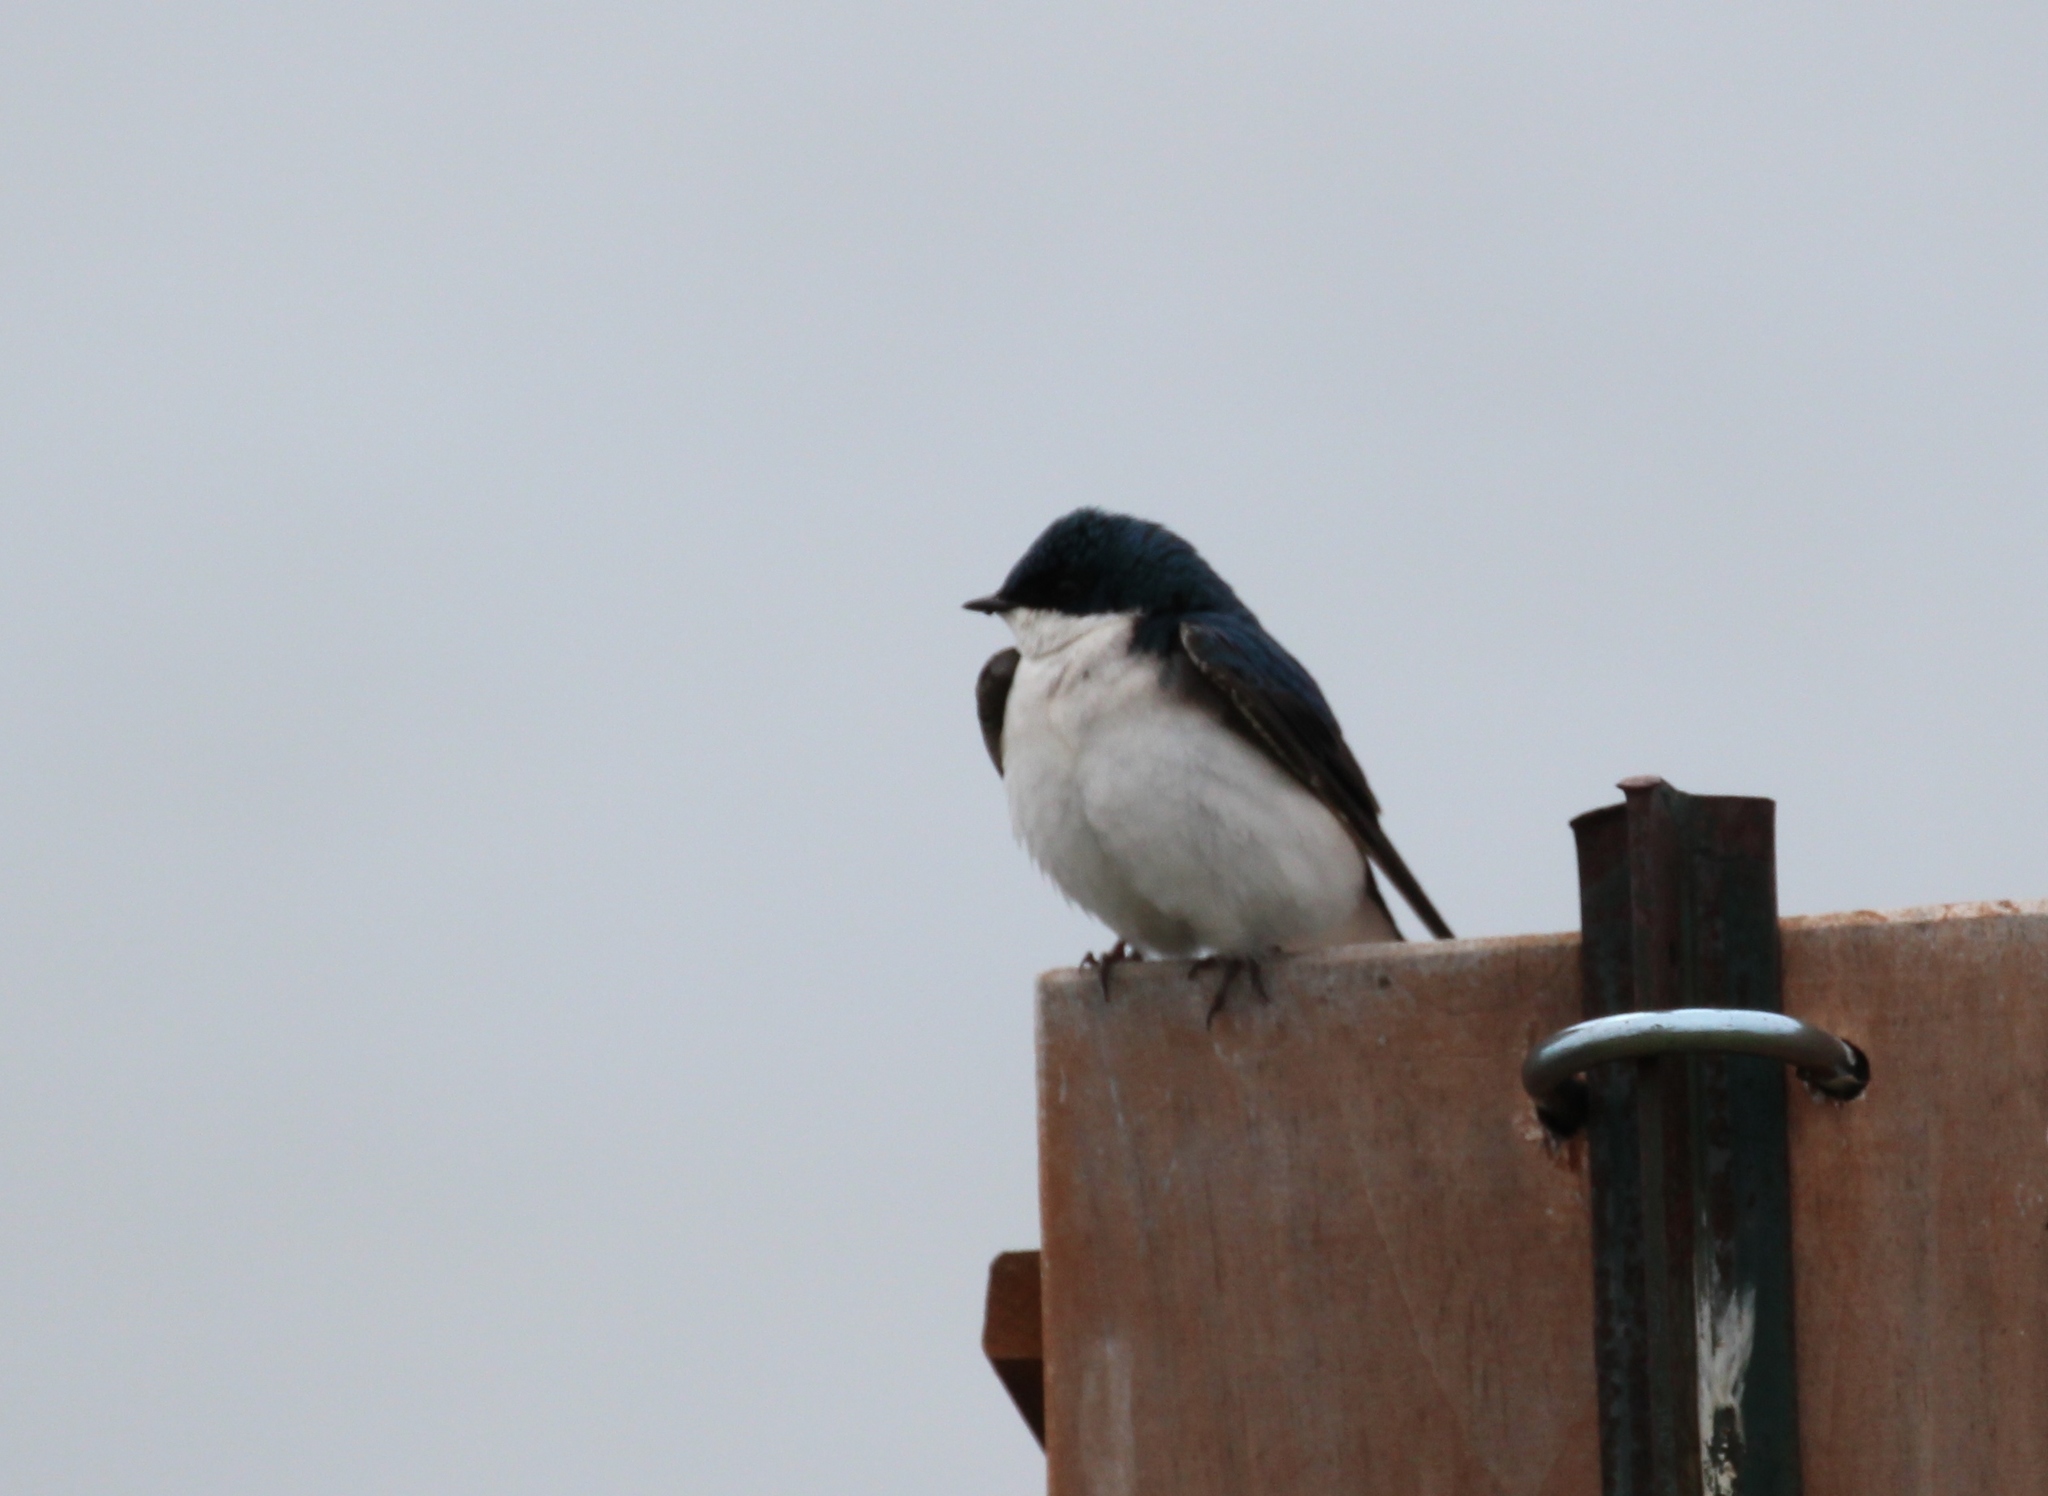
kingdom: Animalia
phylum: Chordata
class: Aves
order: Passeriformes
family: Hirundinidae
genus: Tachycineta
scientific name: Tachycineta bicolor
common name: Tree swallow
